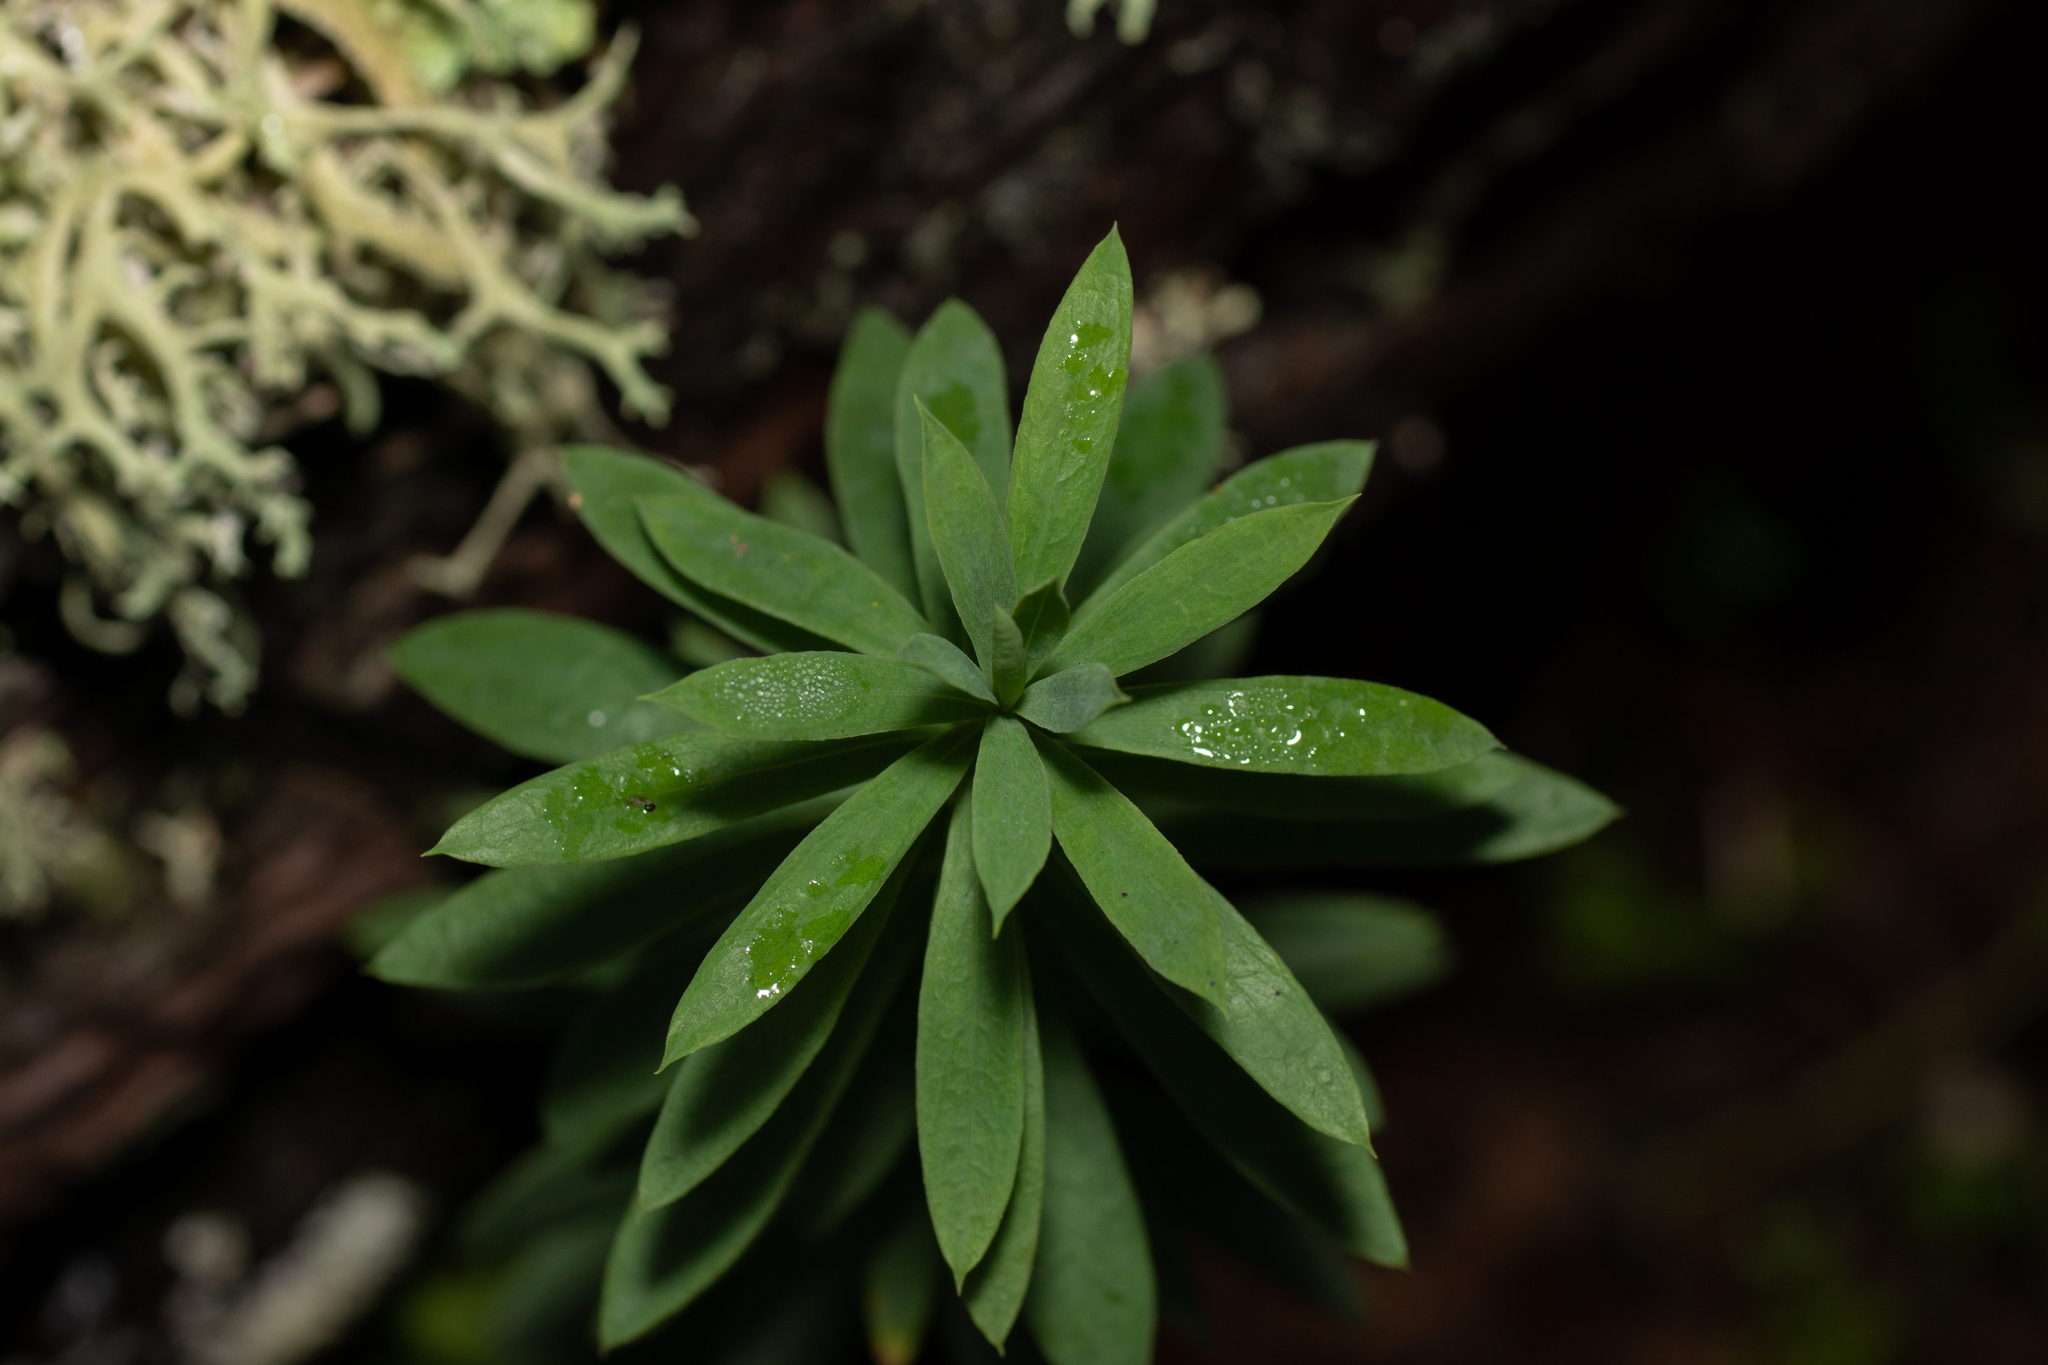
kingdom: Plantae
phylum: Tracheophyta
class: Magnoliopsida
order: Malvales
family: Thymelaeaceae
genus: Daphne
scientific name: Daphne gnidium
